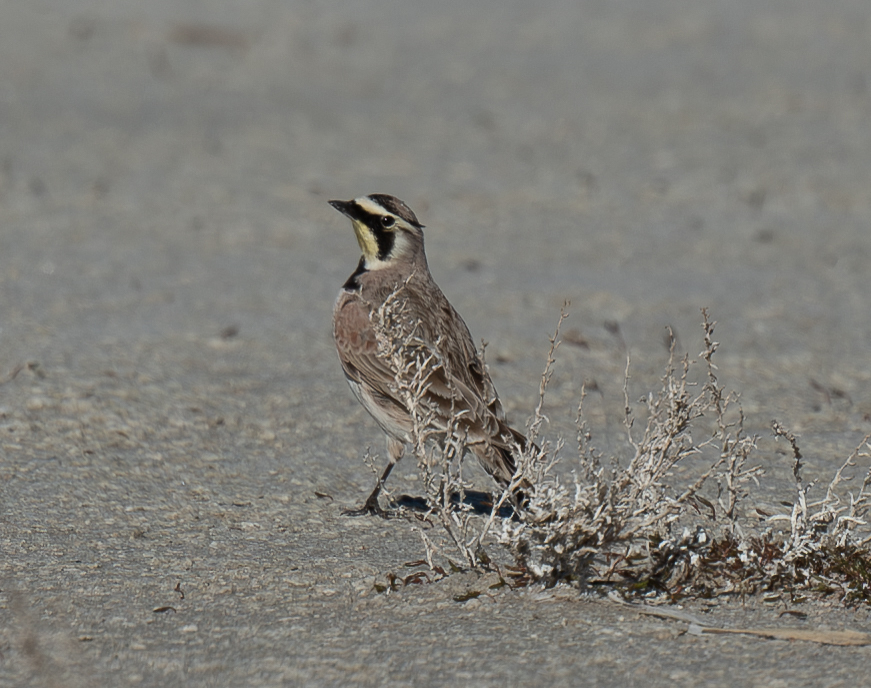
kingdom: Animalia
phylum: Chordata
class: Aves
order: Passeriformes
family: Alaudidae
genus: Eremophila
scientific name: Eremophila alpestris
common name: Horned lark
